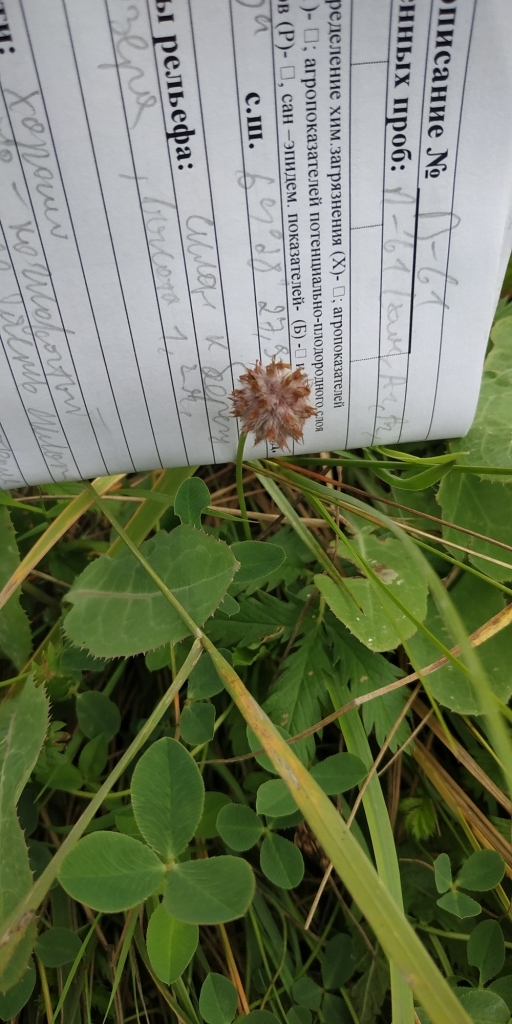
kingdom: Plantae
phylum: Tracheophyta
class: Magnoliopsida
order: Fabales
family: Fabaceae
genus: Trifolium
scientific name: Trifolium fragiferum
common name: Strawberry clover
